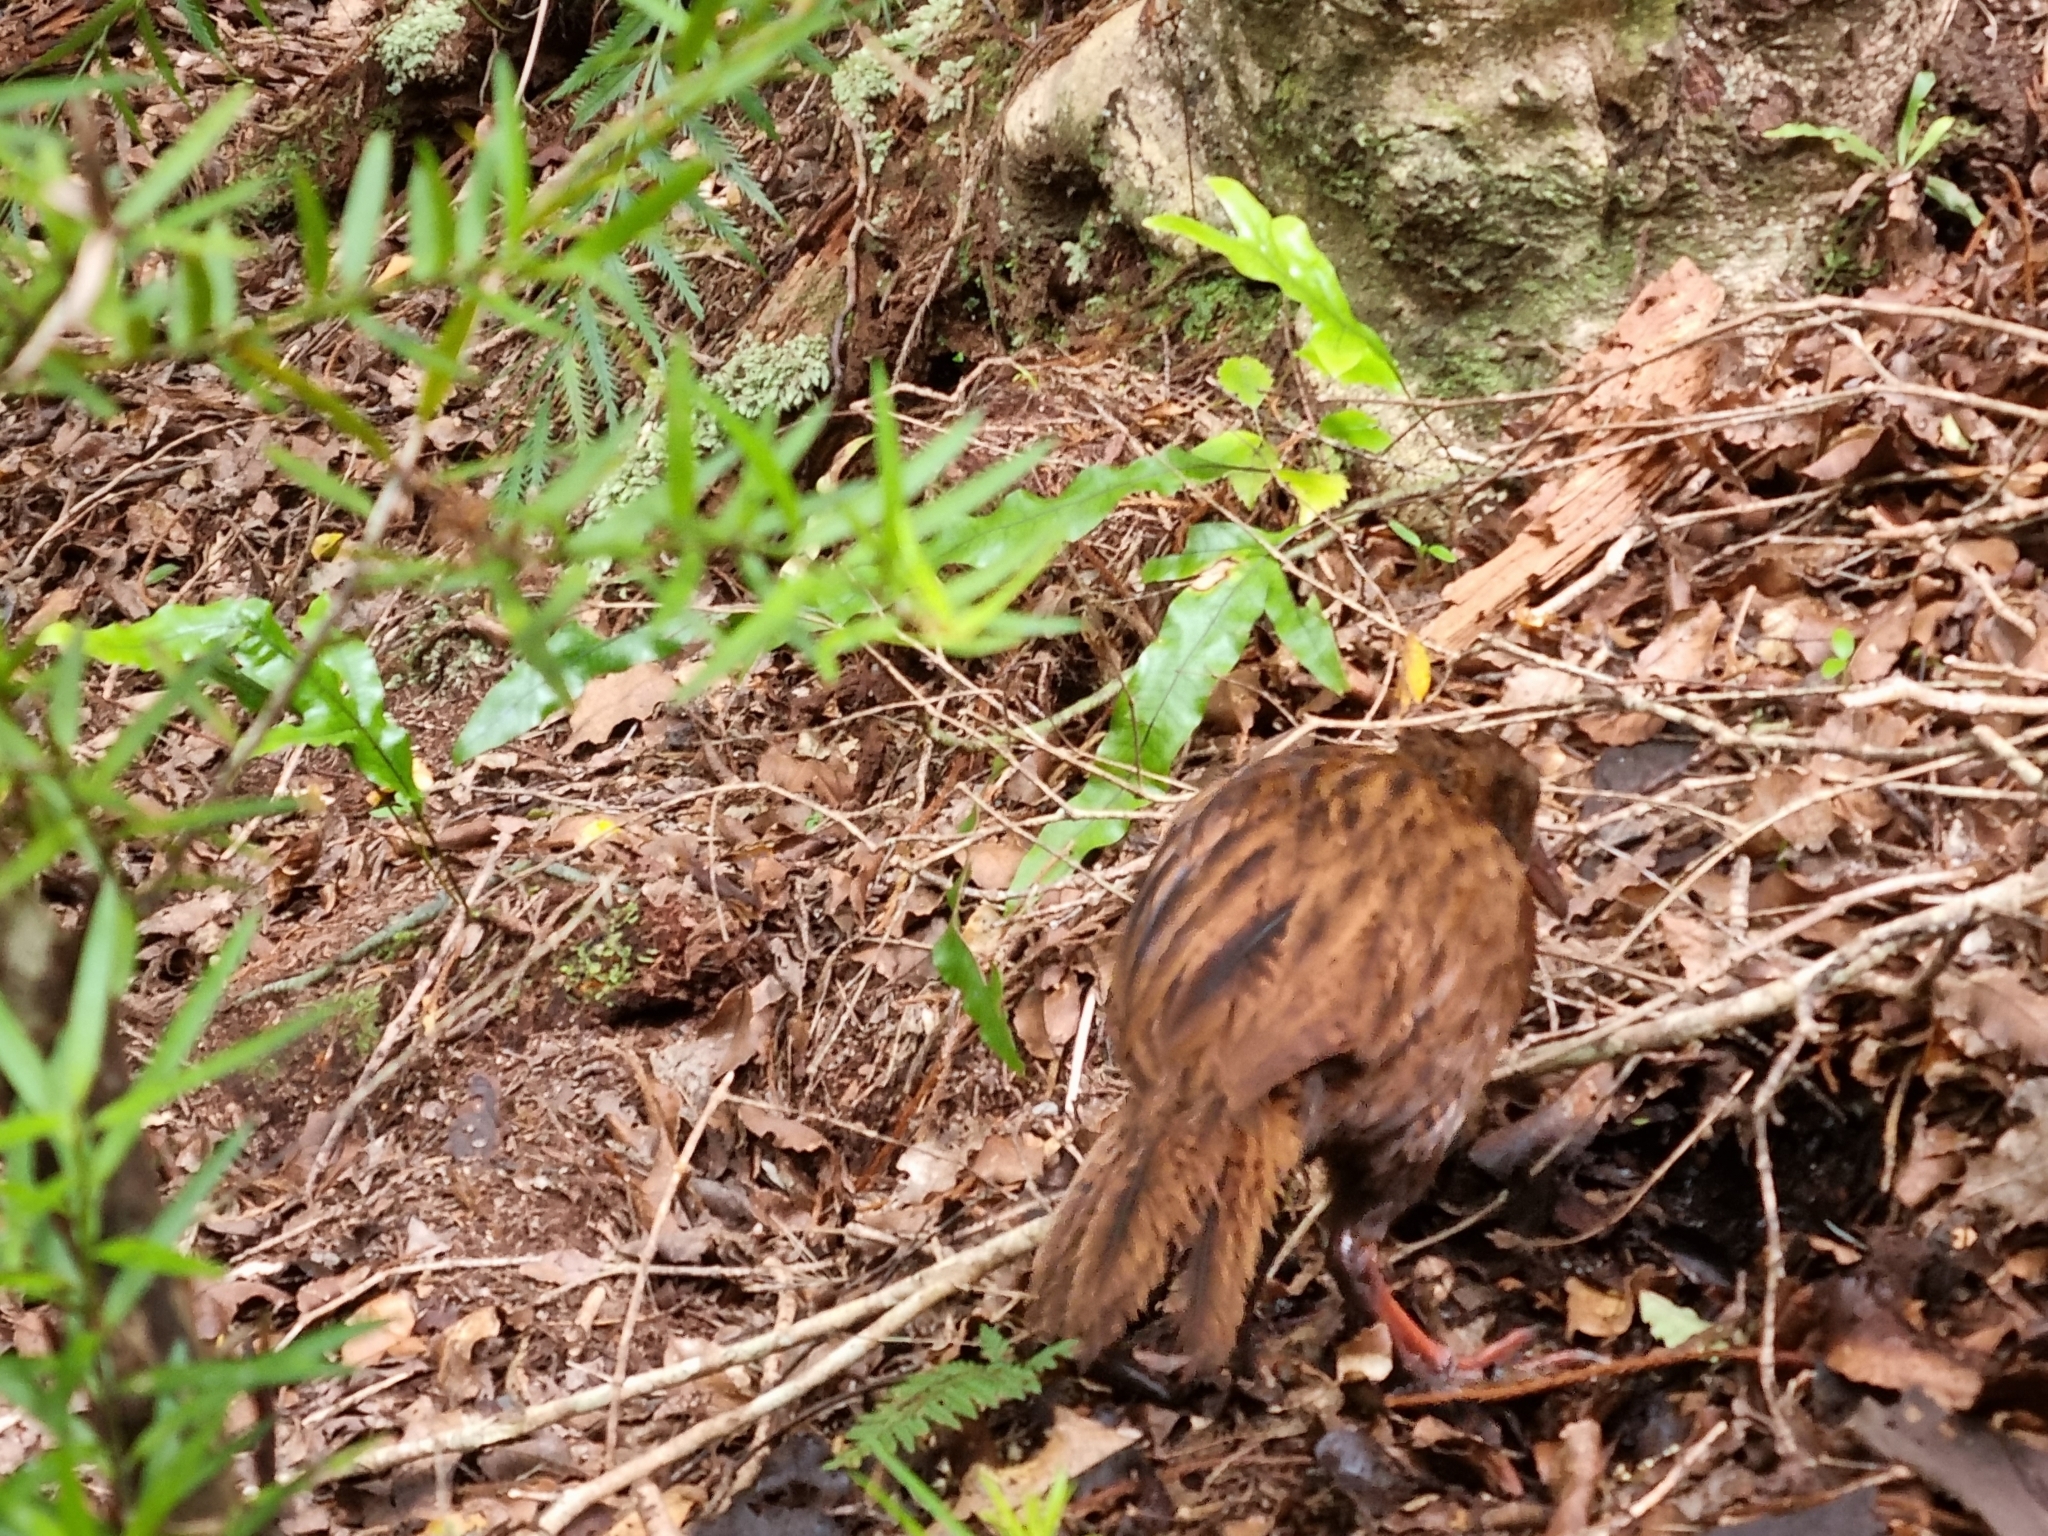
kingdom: Animalia
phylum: Chordata
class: Aves
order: Gruiformes
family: Rallidae
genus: Gallirallus
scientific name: Gallirallus australis
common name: Weka
